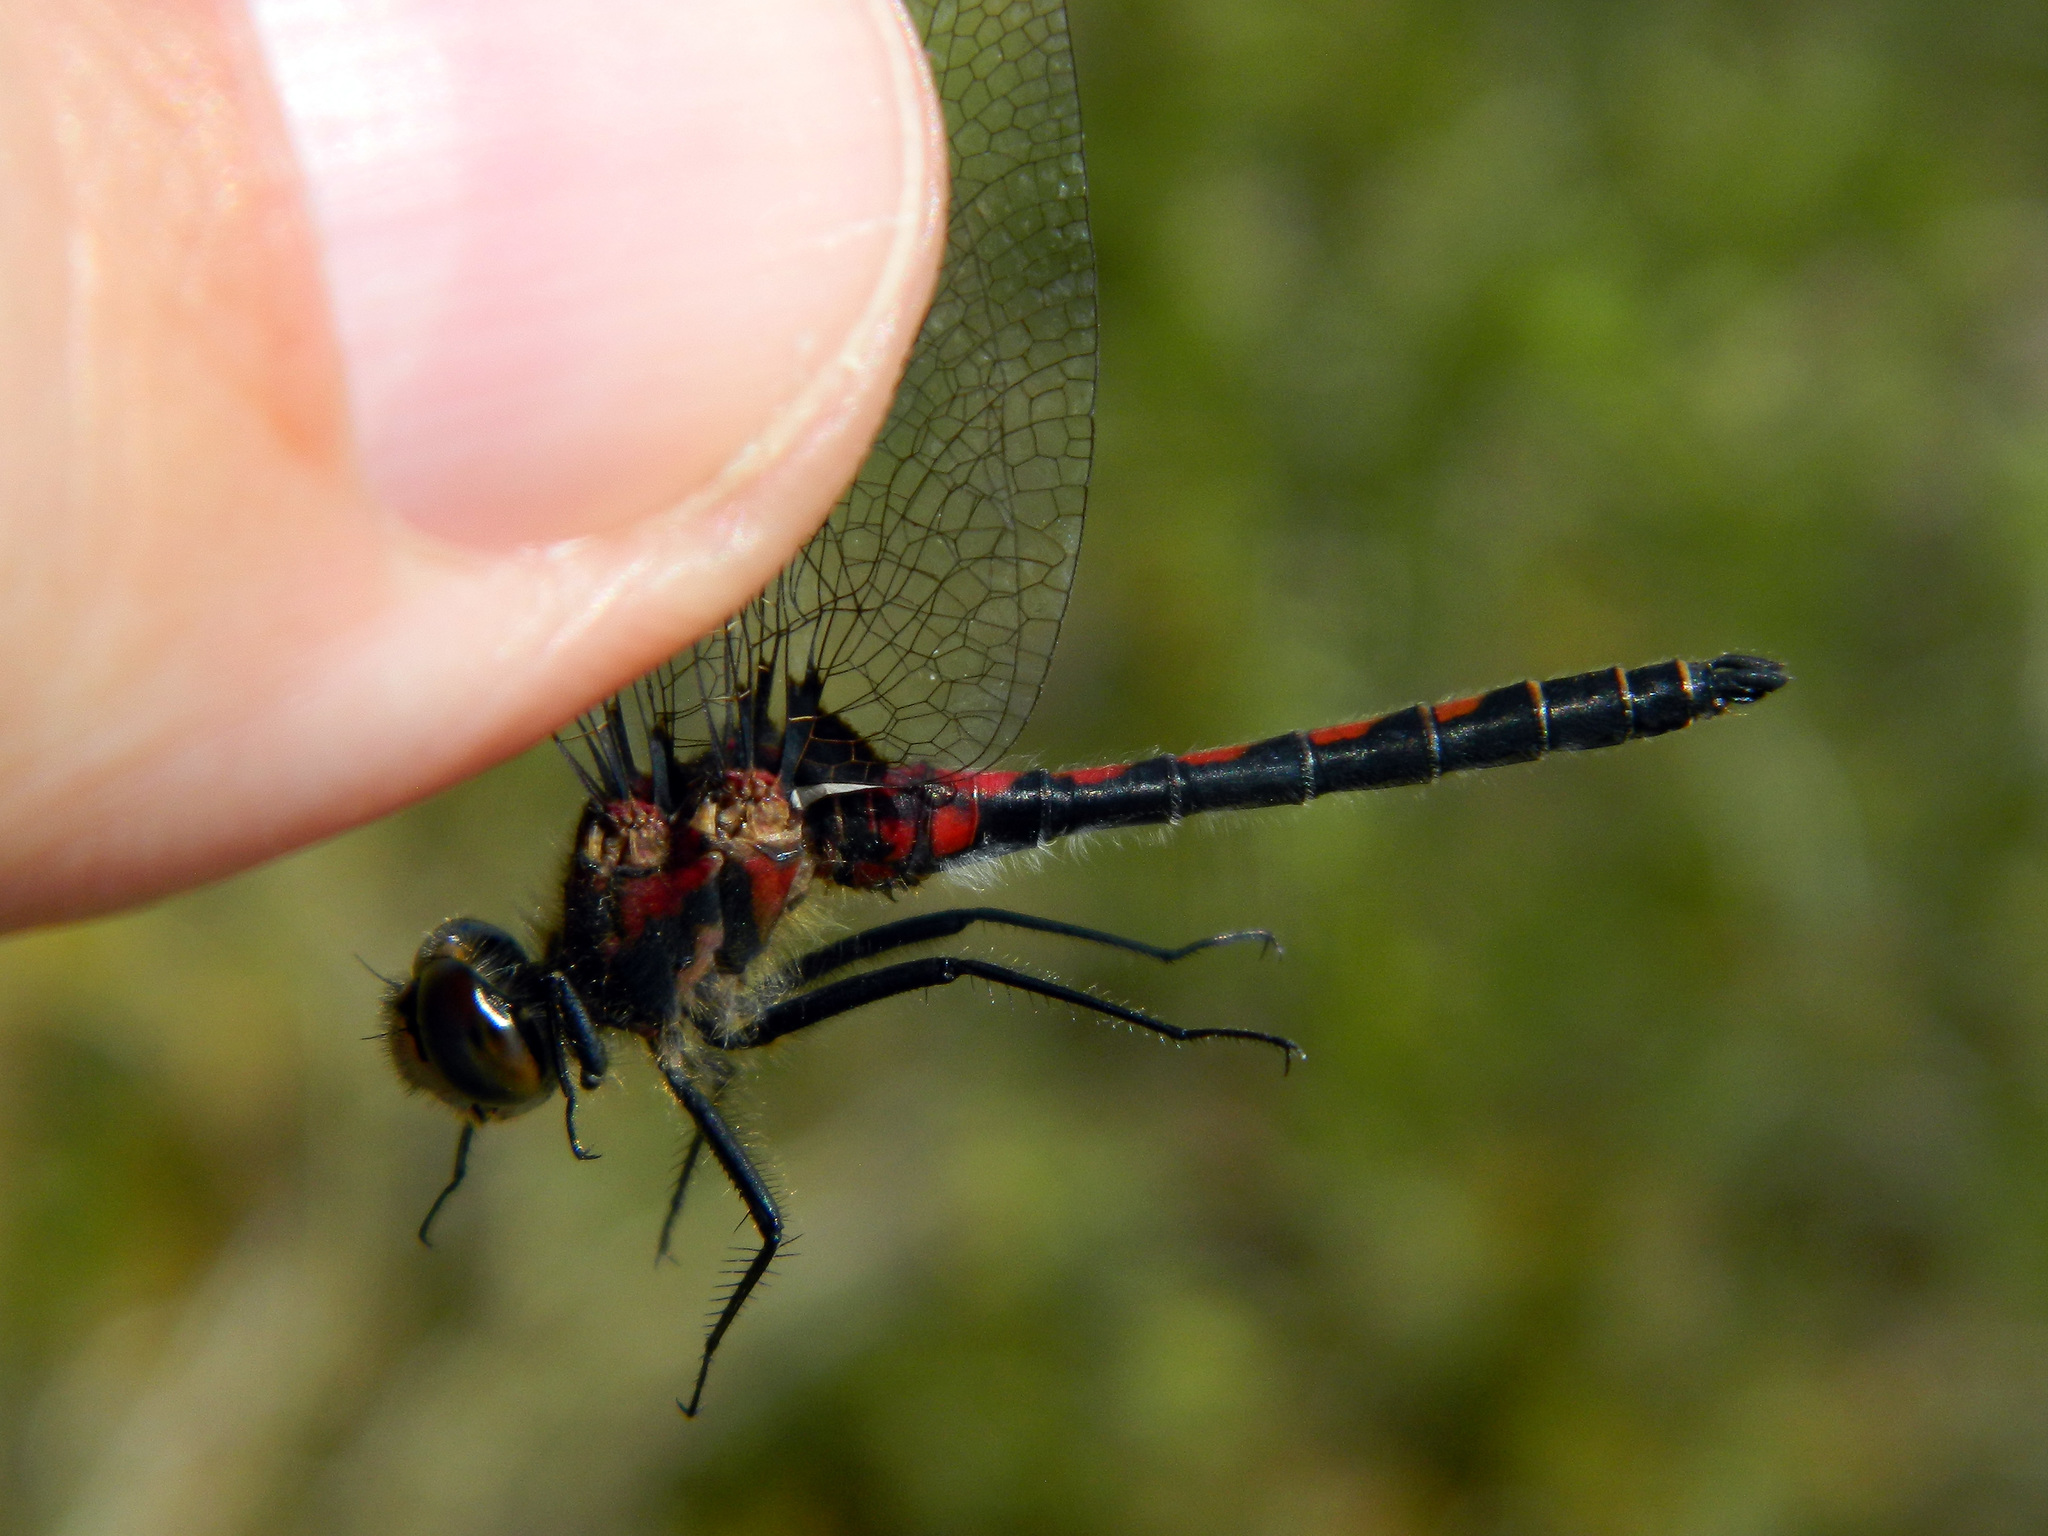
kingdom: Animalia
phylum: Arthropoda
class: Insecta
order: Odonata
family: Libellulidae
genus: Leucorrhinia
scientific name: Leucorrhinia hudsonica
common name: Hudsonian whiteface
